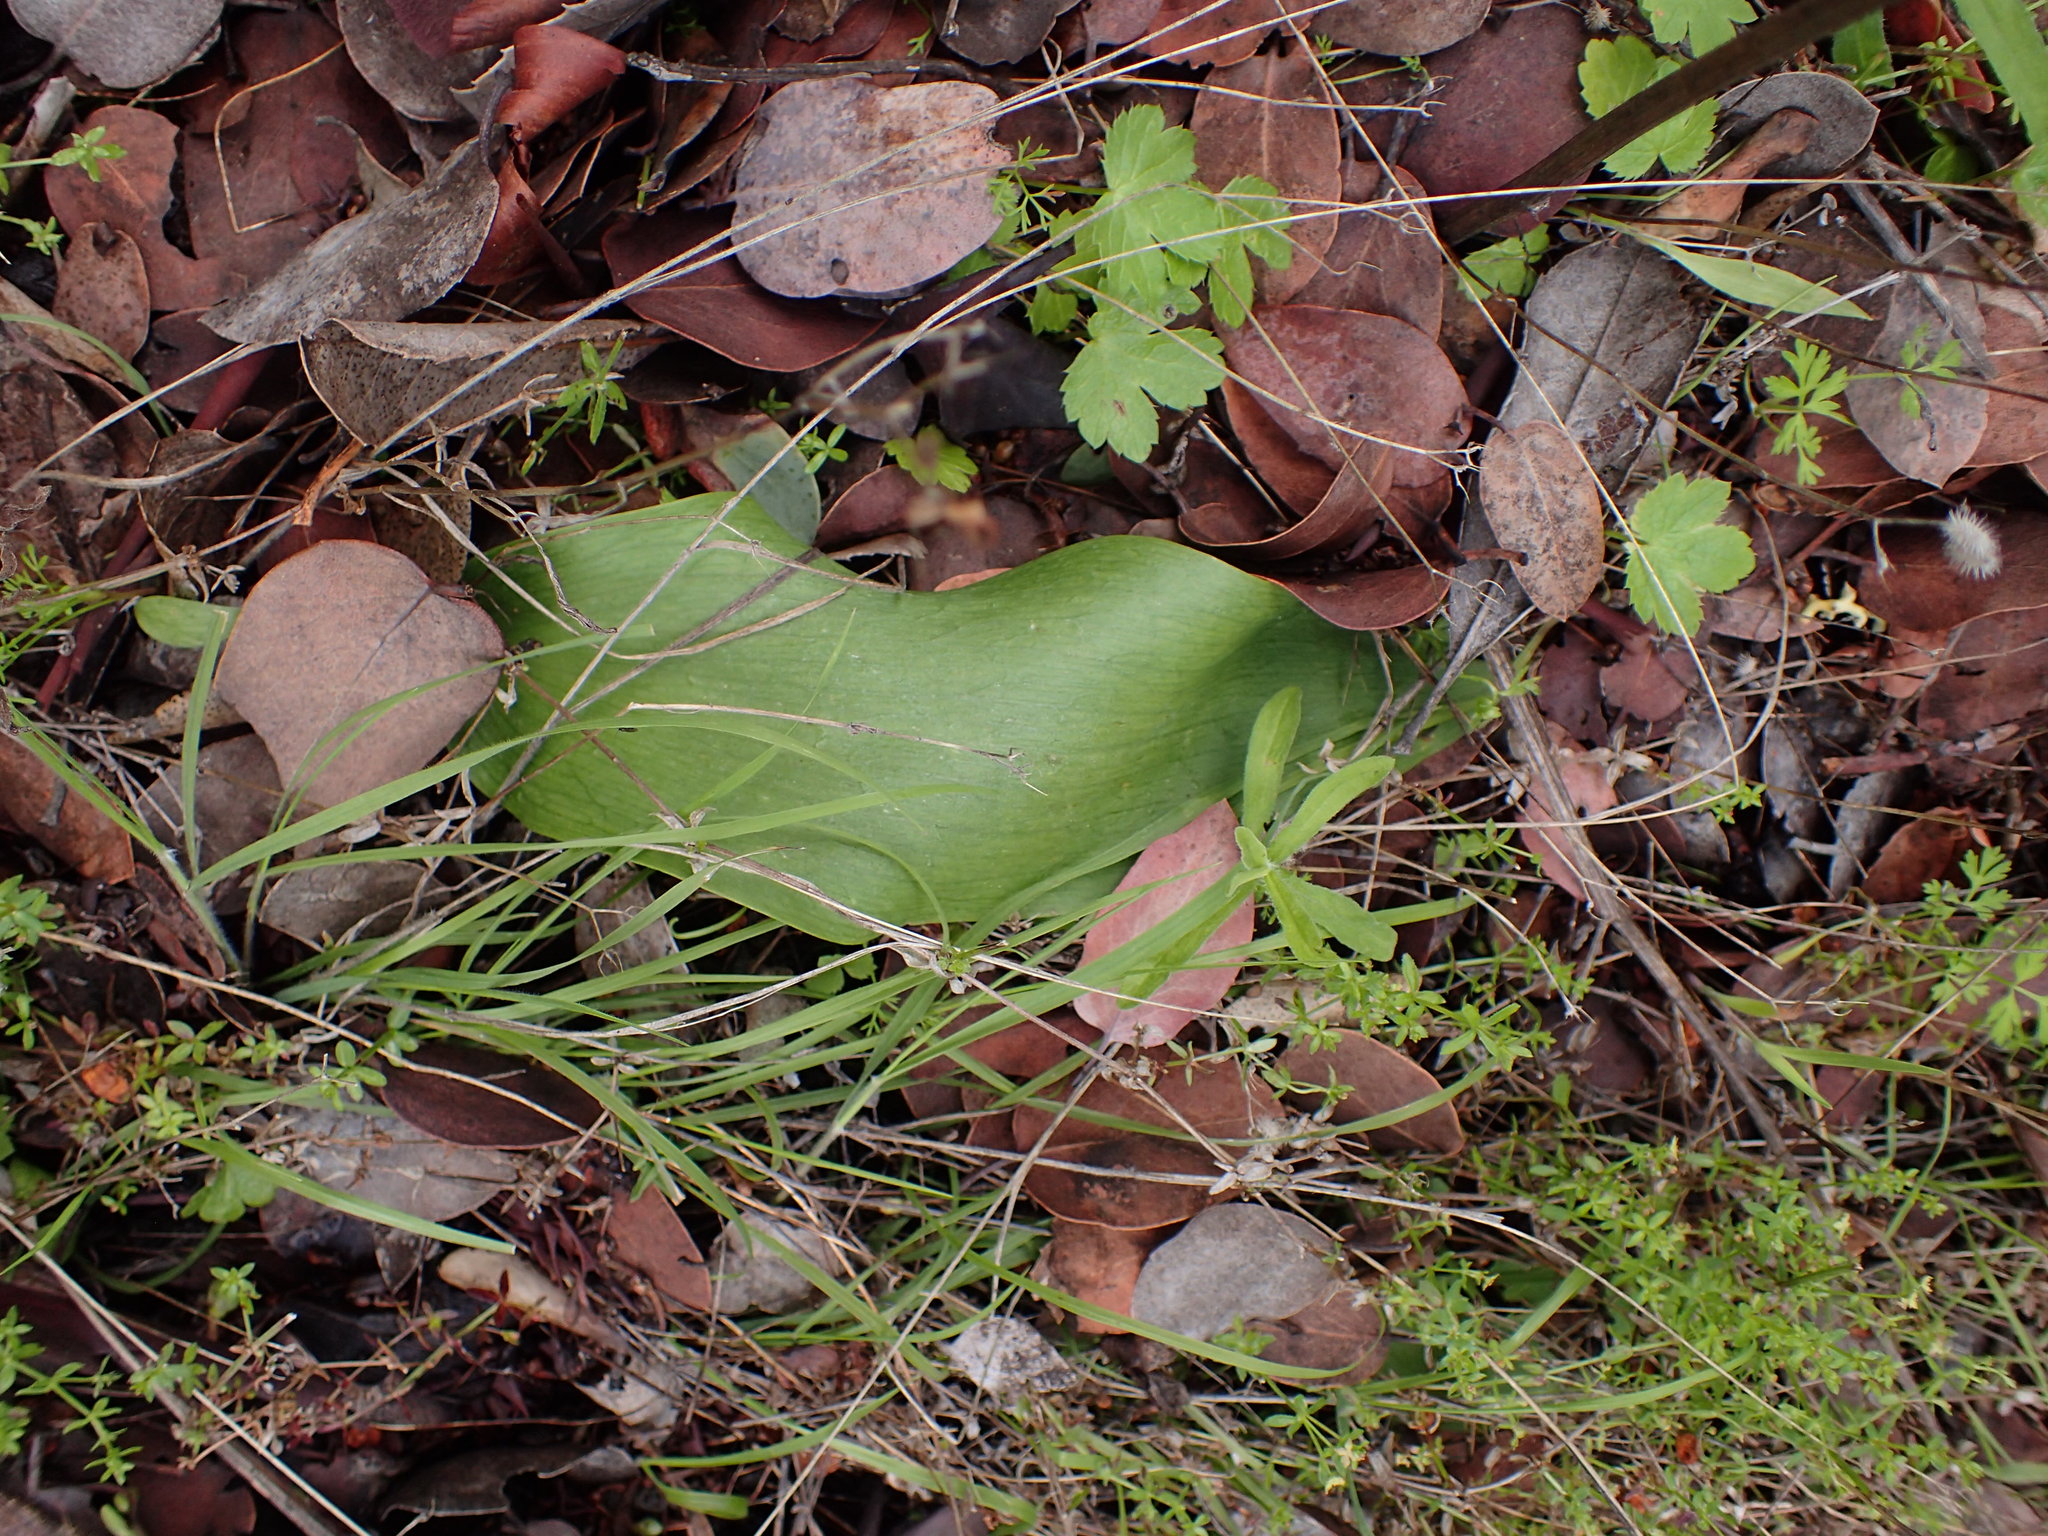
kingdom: Plantae
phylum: Tracheophyta
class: Liliopsida
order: Liliales
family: Liliaceae
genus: Fritillaria
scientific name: Fritillaria ojaiensis
